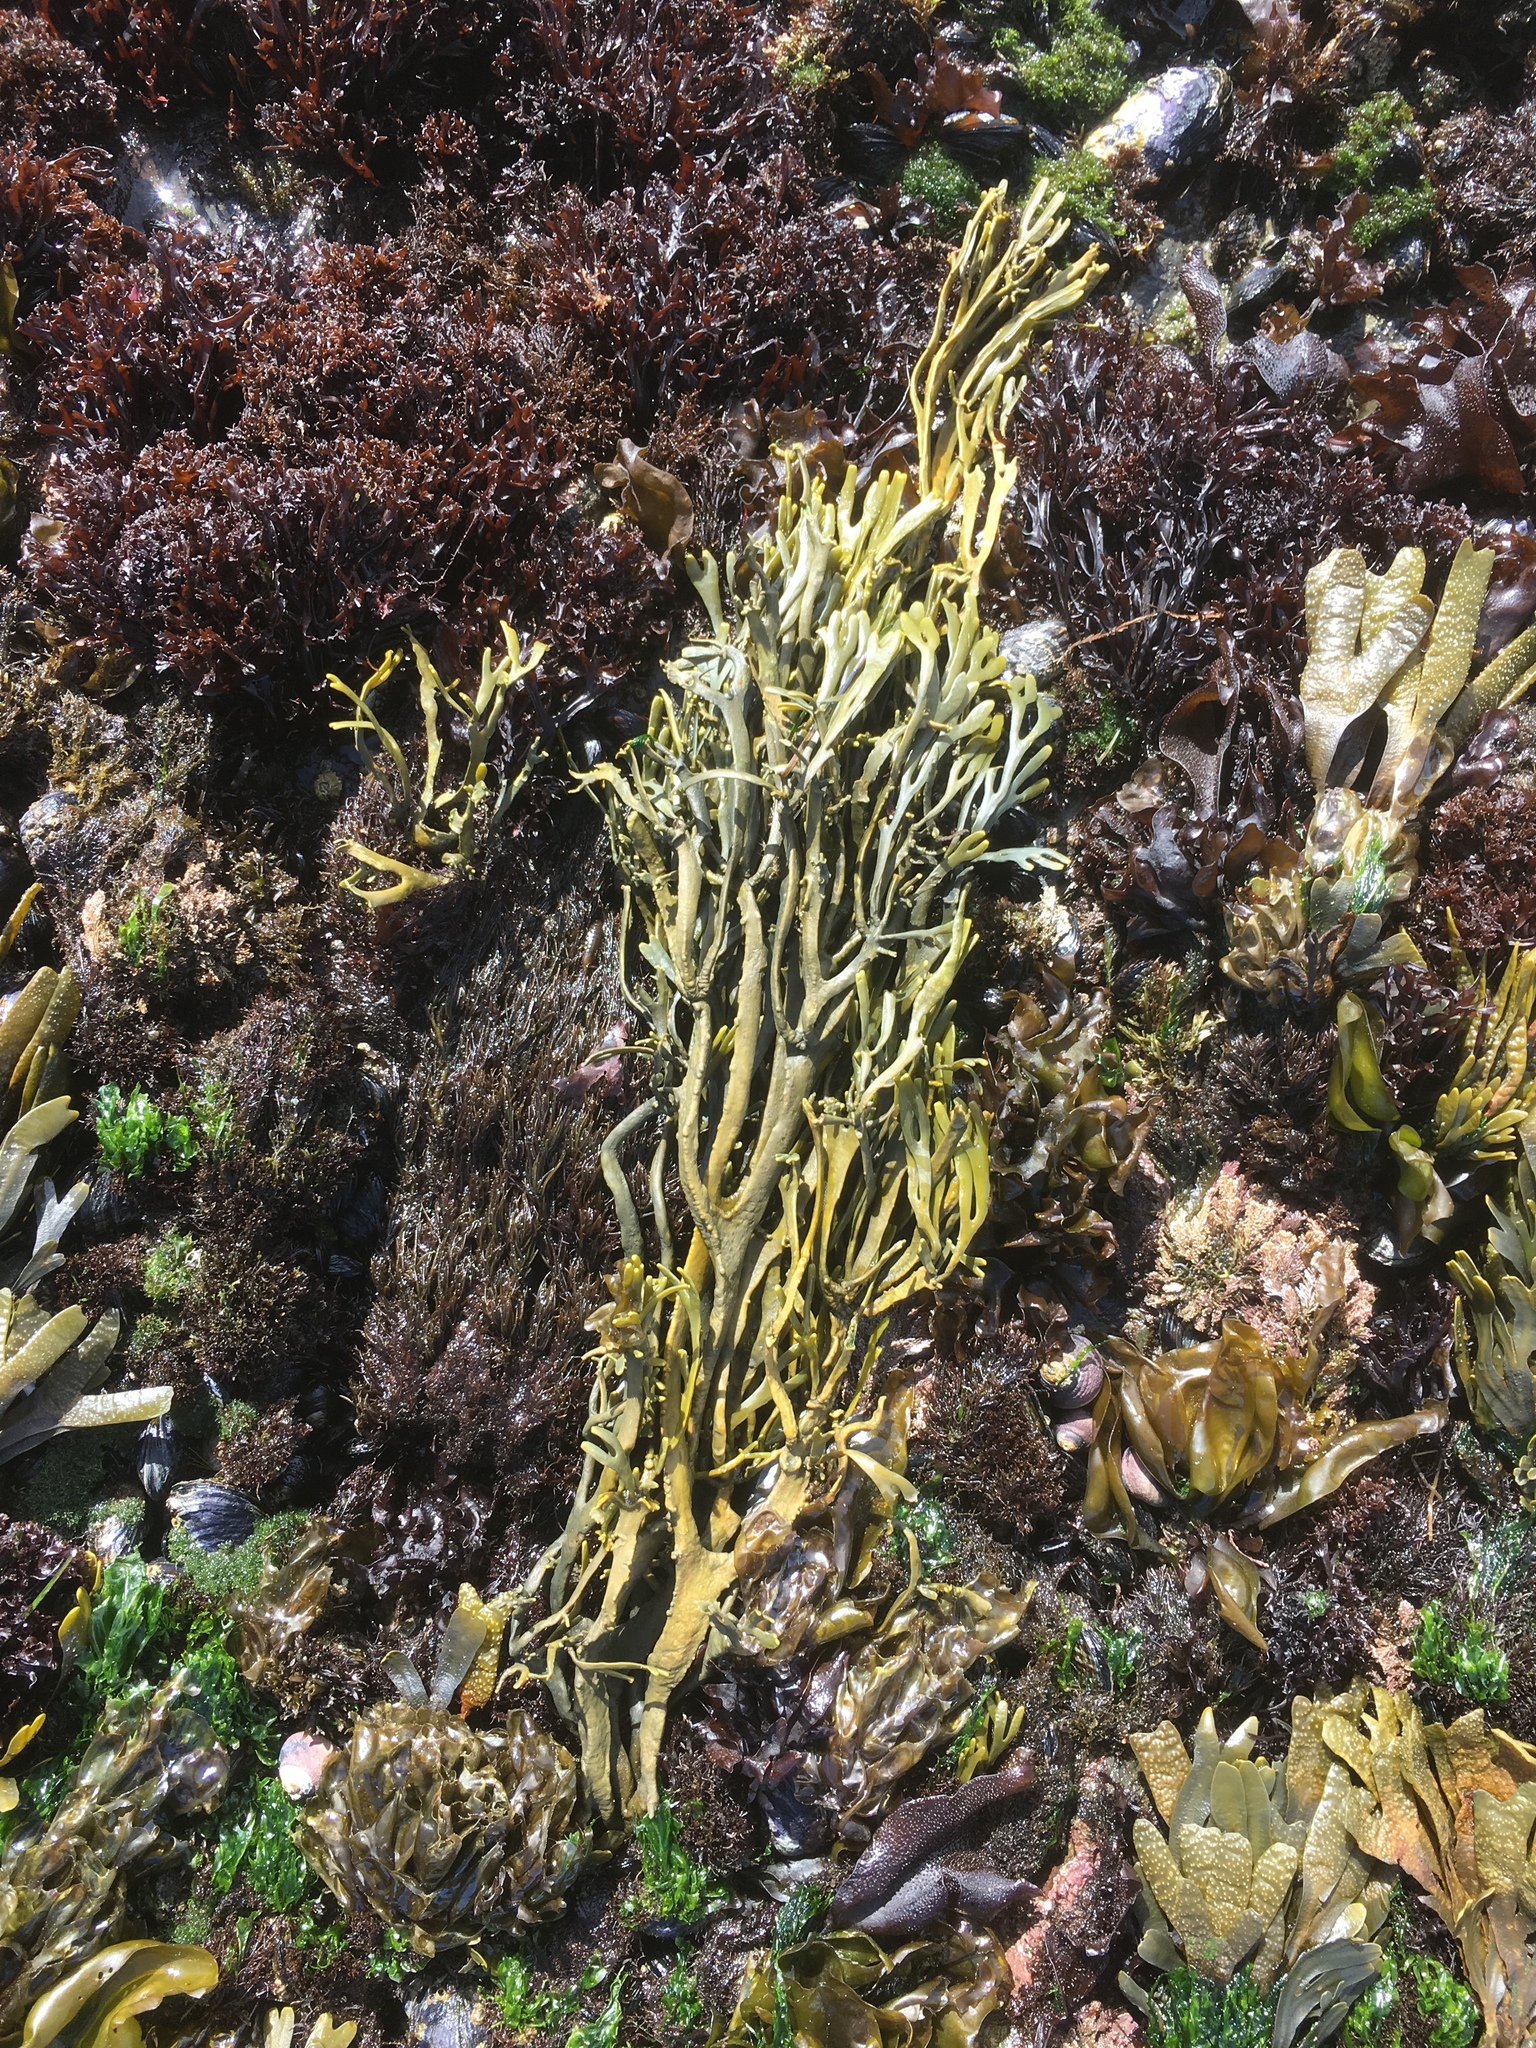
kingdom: Chromista
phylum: Ochrophyta
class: Phaeophyceae
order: Fucales
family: Fucaceae
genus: Silvetia
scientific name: Silvetia
